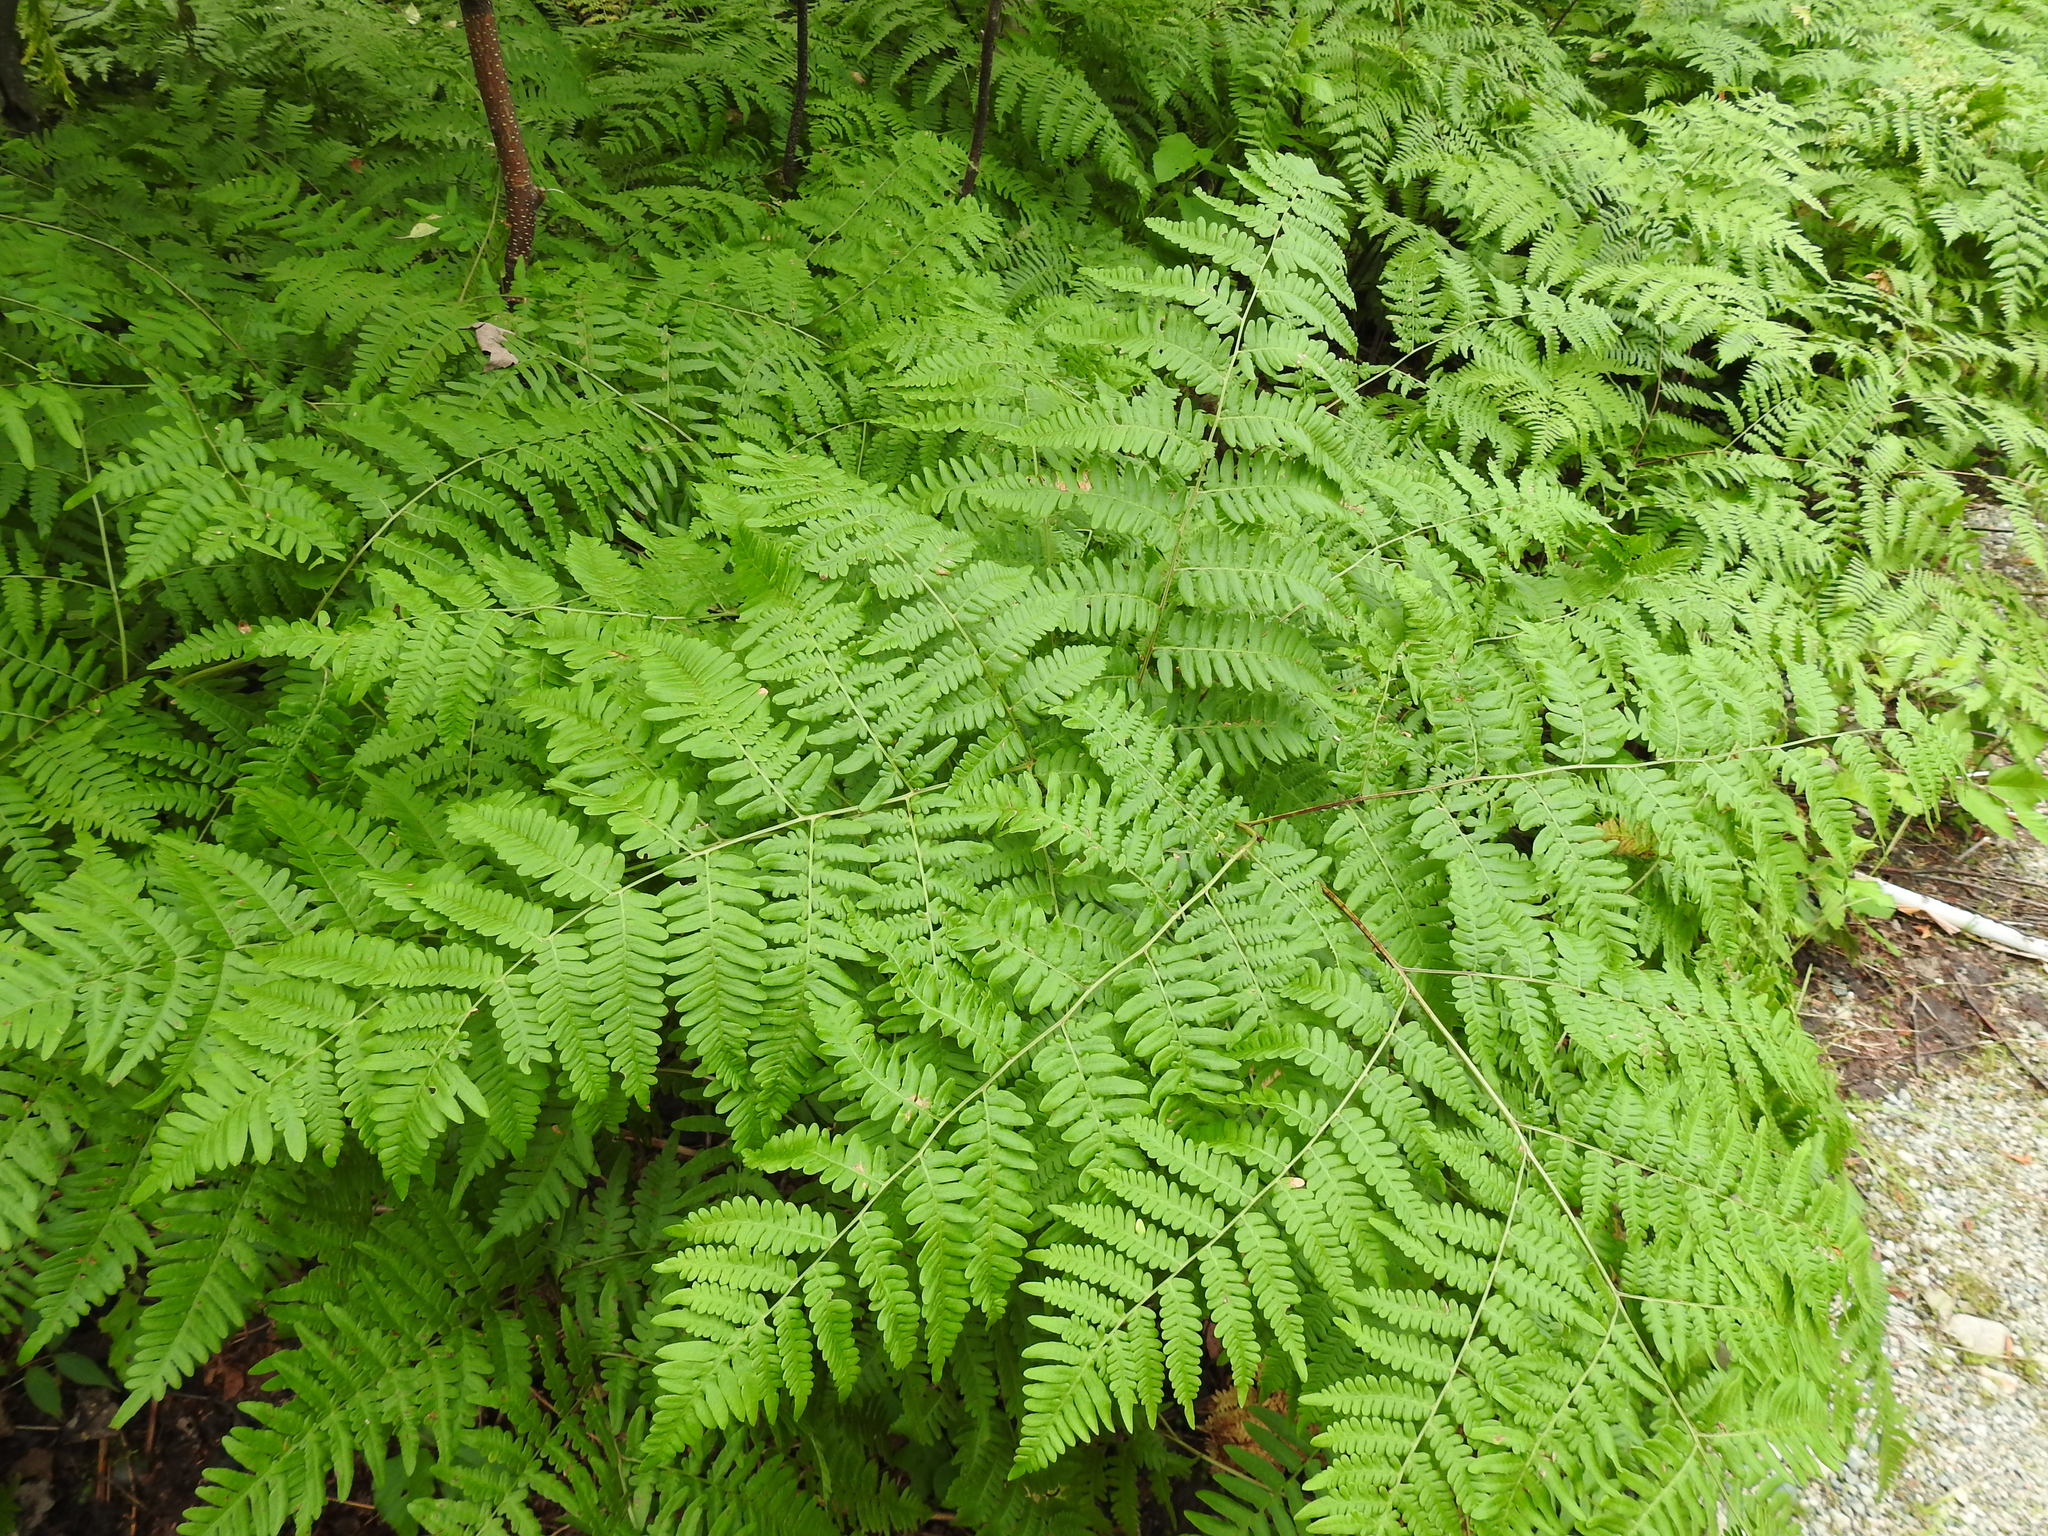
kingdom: Plantae
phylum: Tracheophyta
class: Polypodiopsida
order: Polypodiales
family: Dennstaedtiaceae
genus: Pteridium
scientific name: Pteridium aquilinum
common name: Bracken
